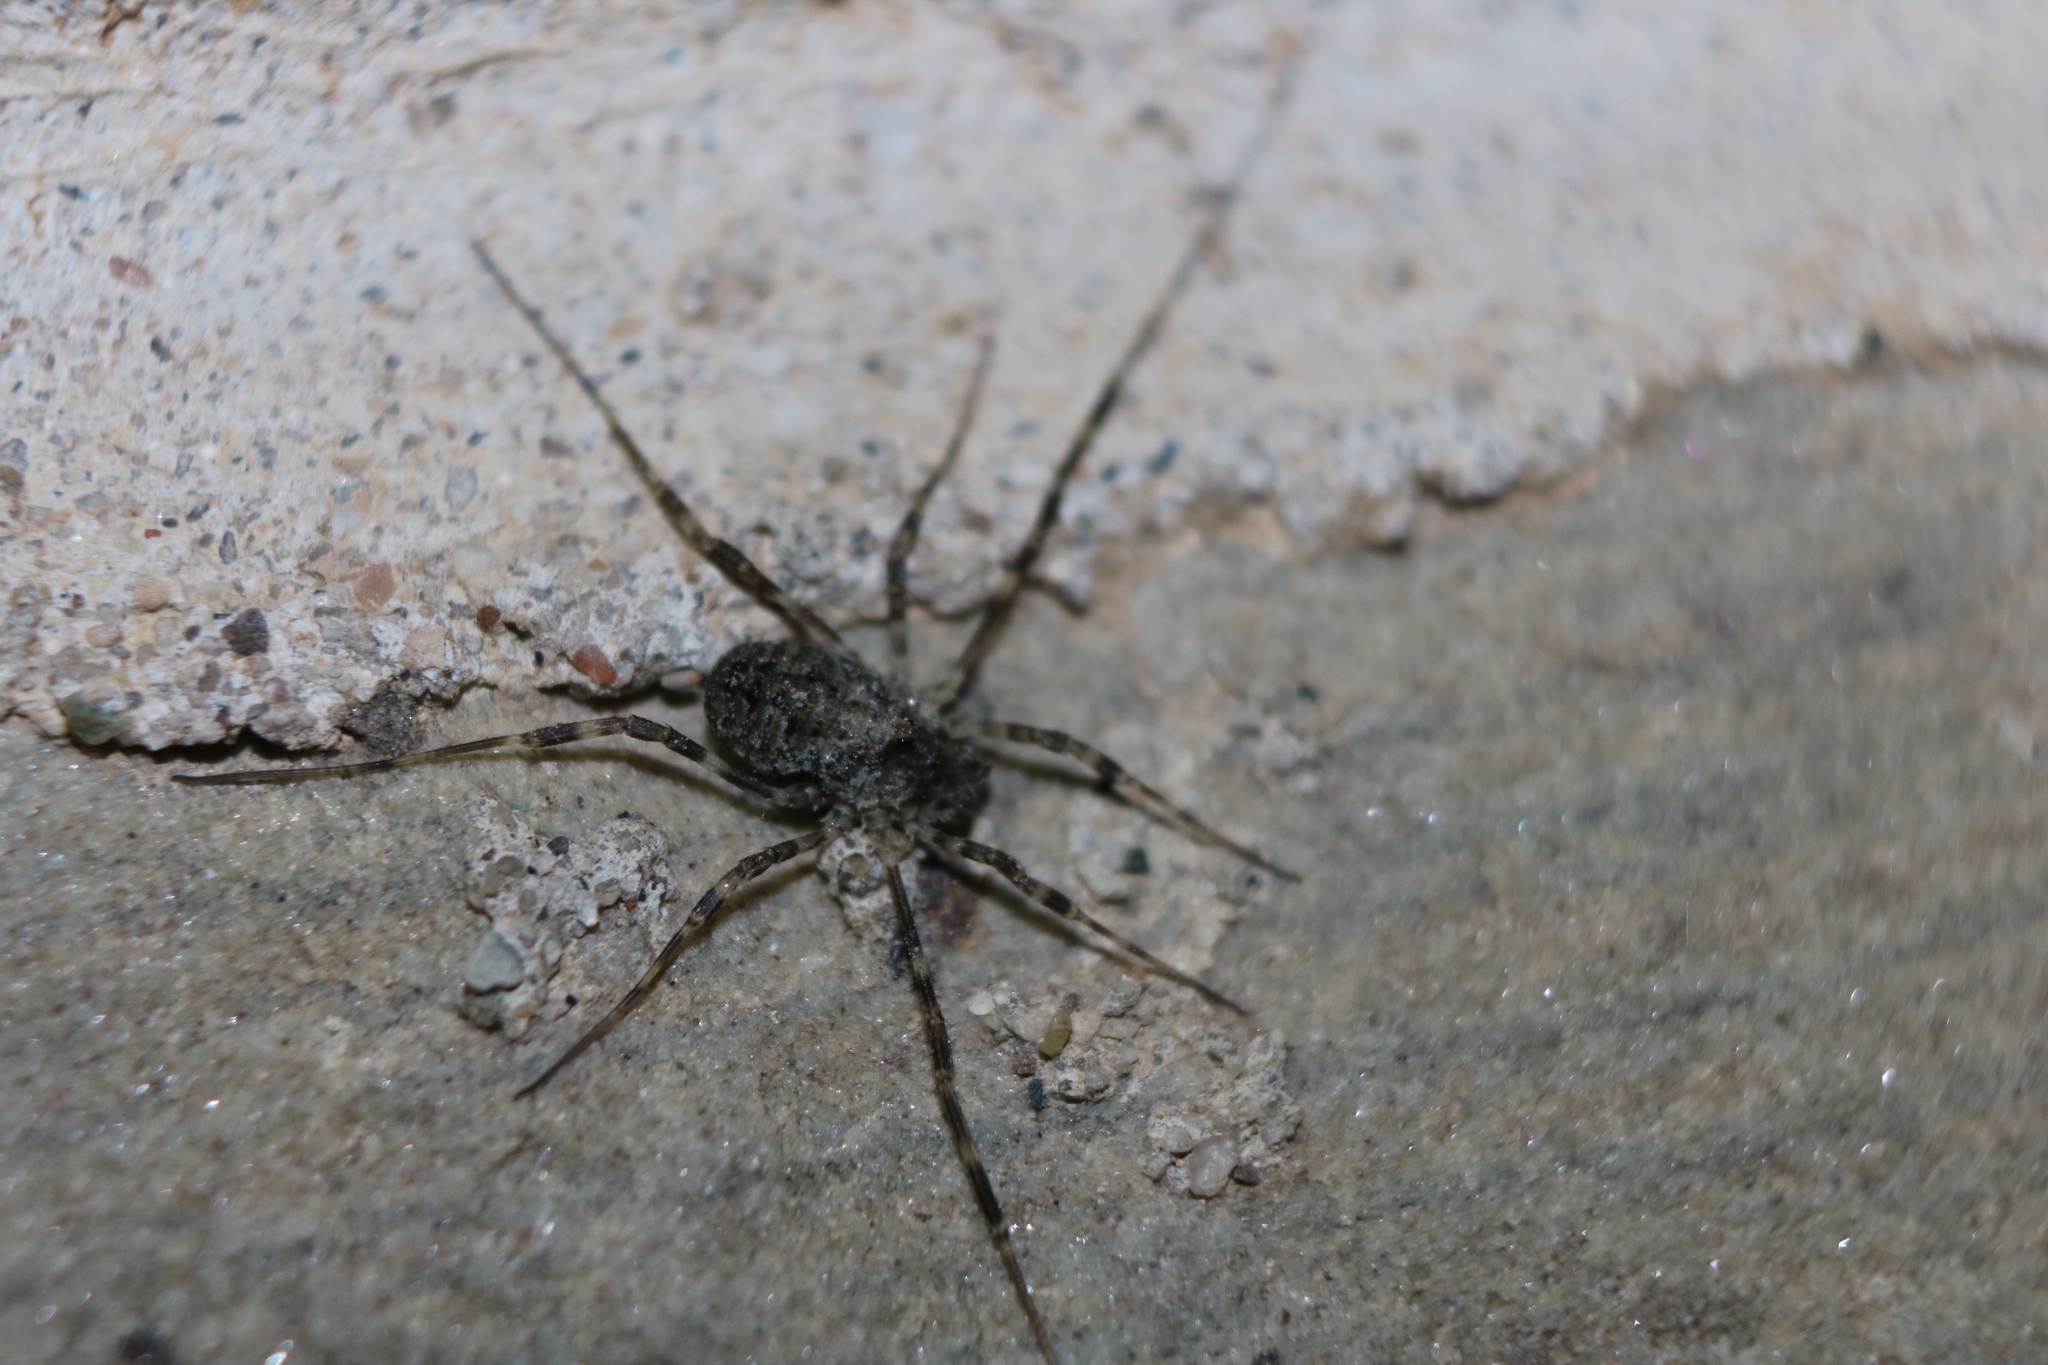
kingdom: Animalia
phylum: Arthropoda
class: Arachnida
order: Opiliones
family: Phalangiidae
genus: Odiellus
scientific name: Odiellus pictus
